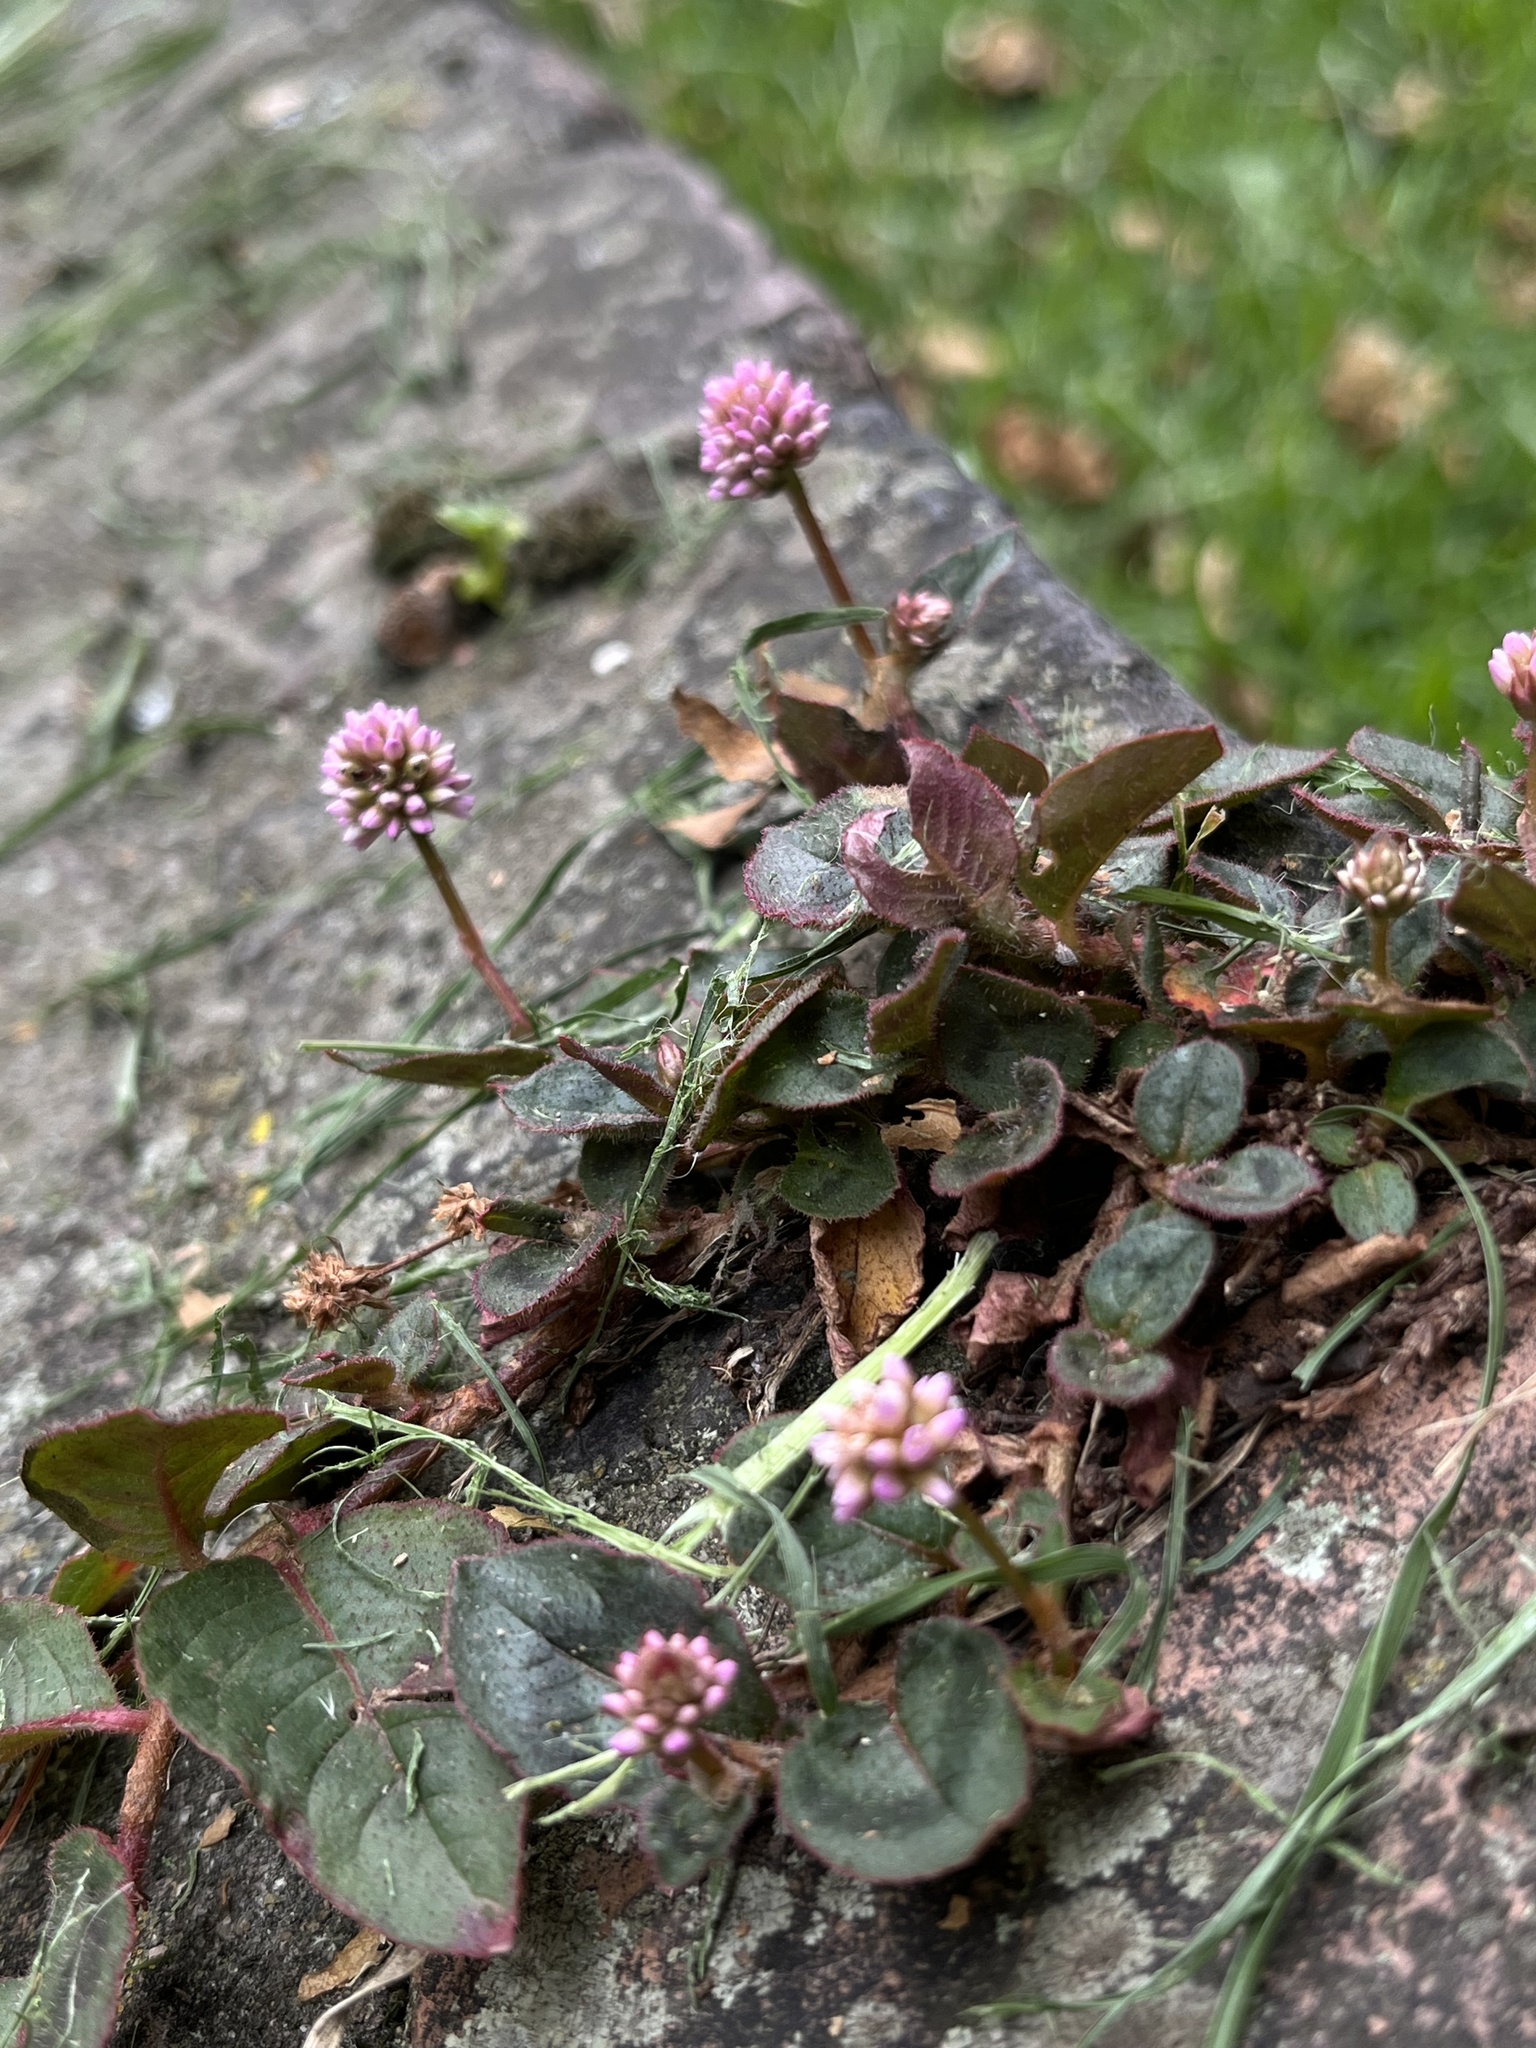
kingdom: Plantae
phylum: Tracheophyta
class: Magnoliopsida
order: Caryophyllales
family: Polygonaceae
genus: Persicaria
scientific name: Persicaria capitata
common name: Pinkhead smartweed
